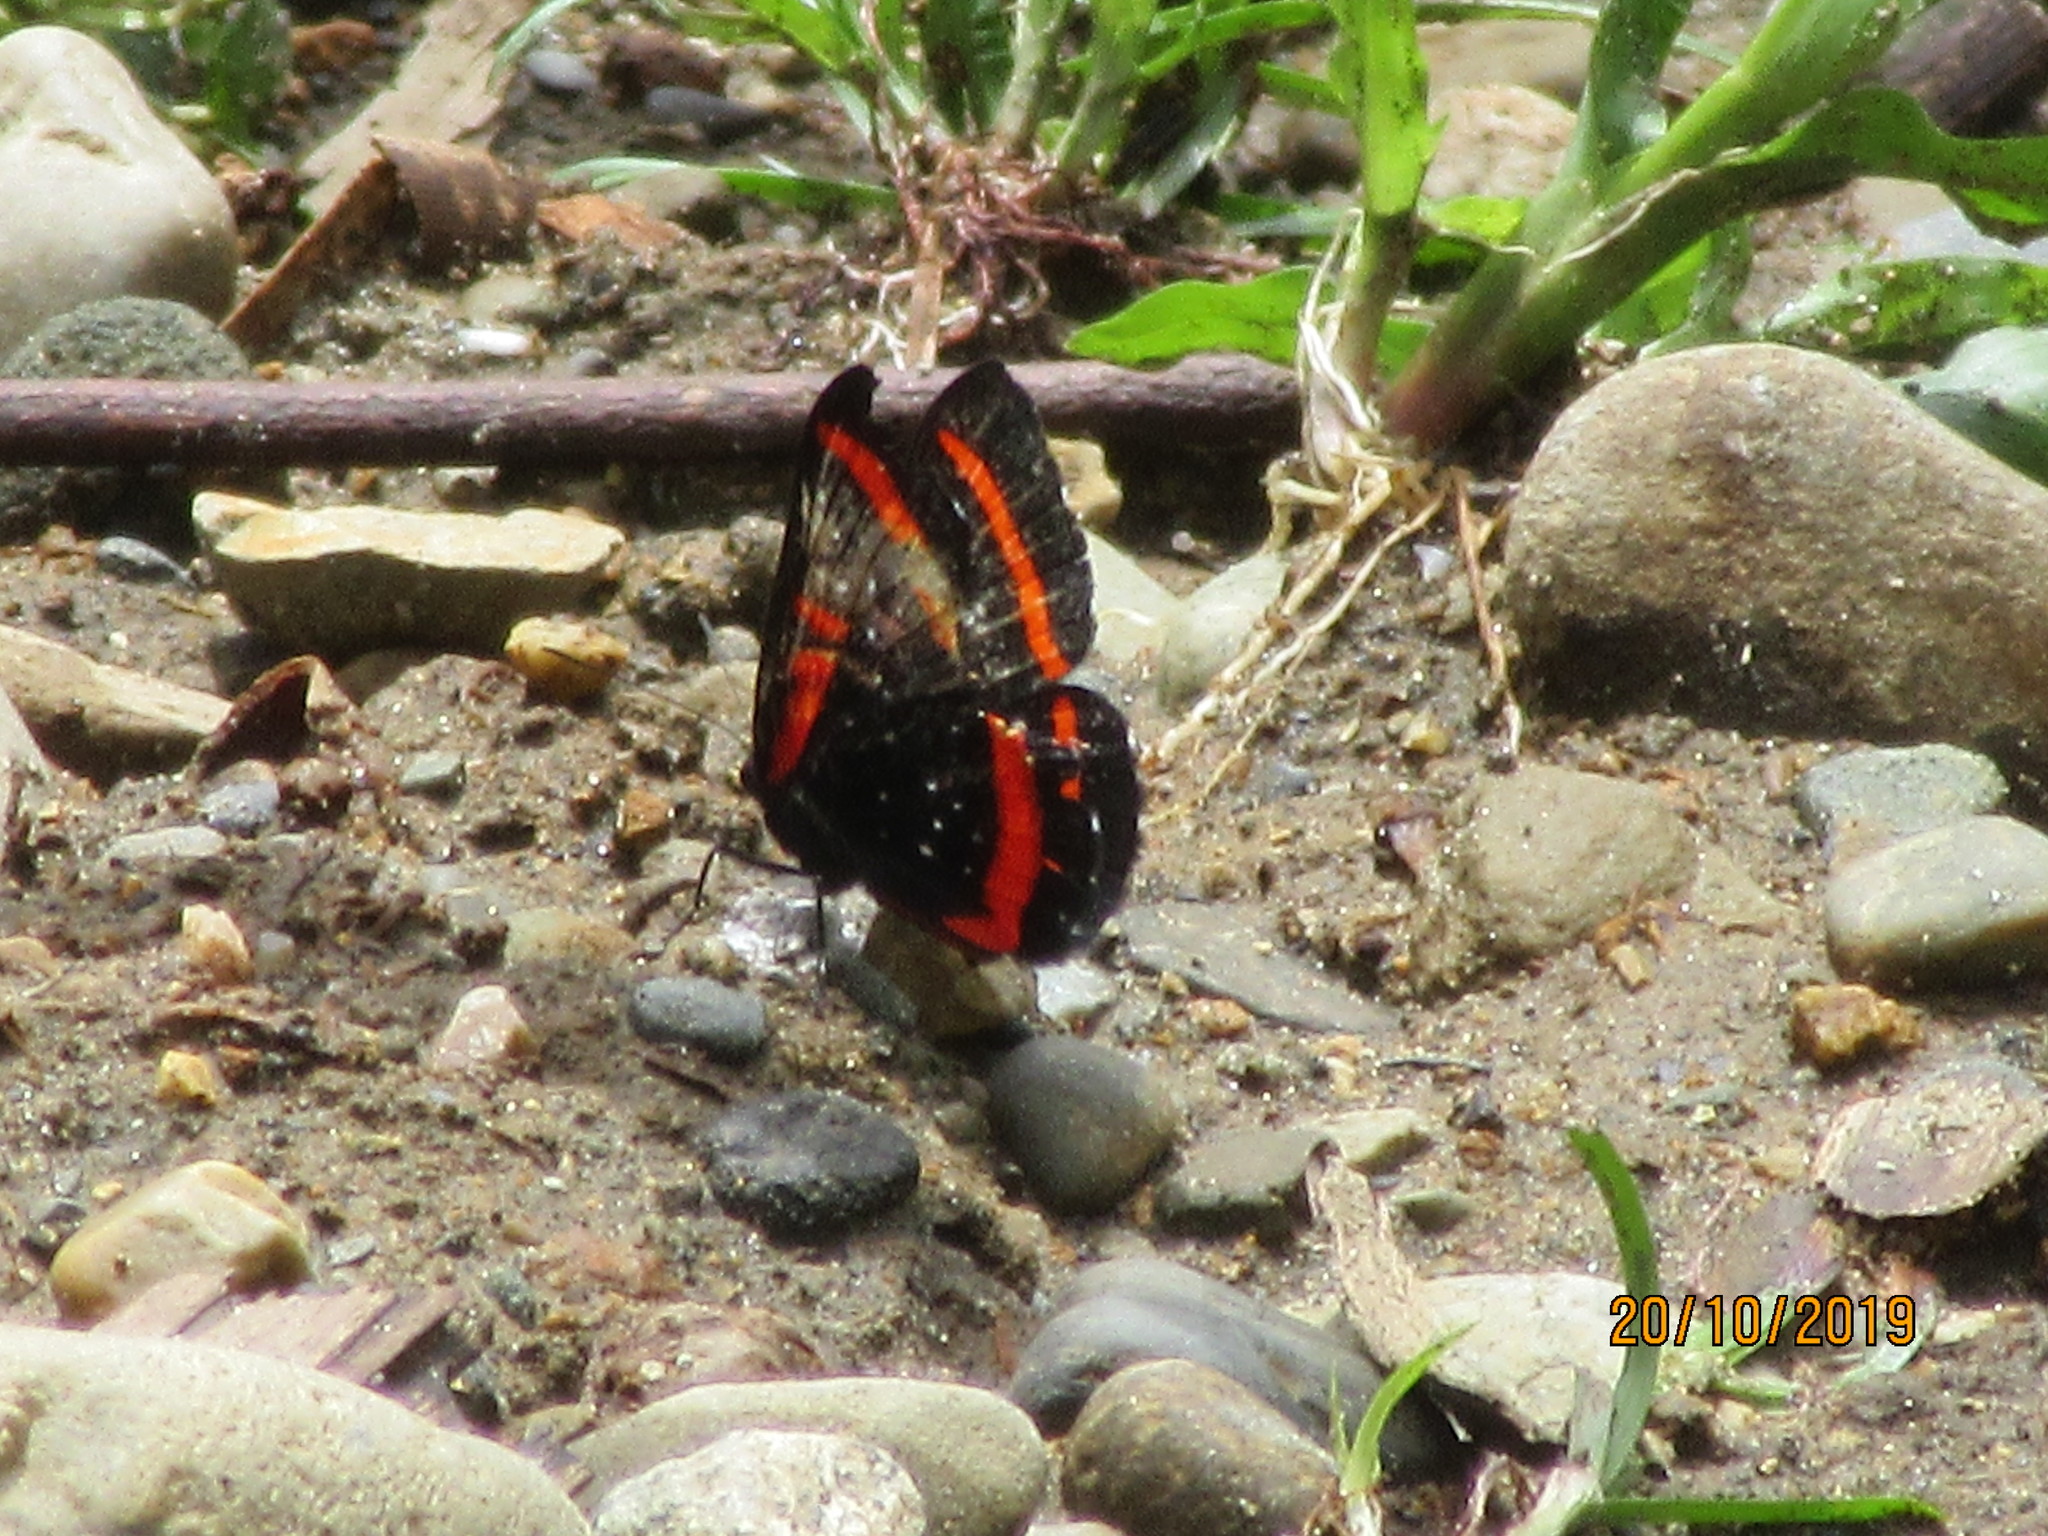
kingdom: Animalia
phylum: Arthropoda
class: Insecta
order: Lepidoptera
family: Riodinidae
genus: Amarynthis
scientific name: Amarynthis meneria
